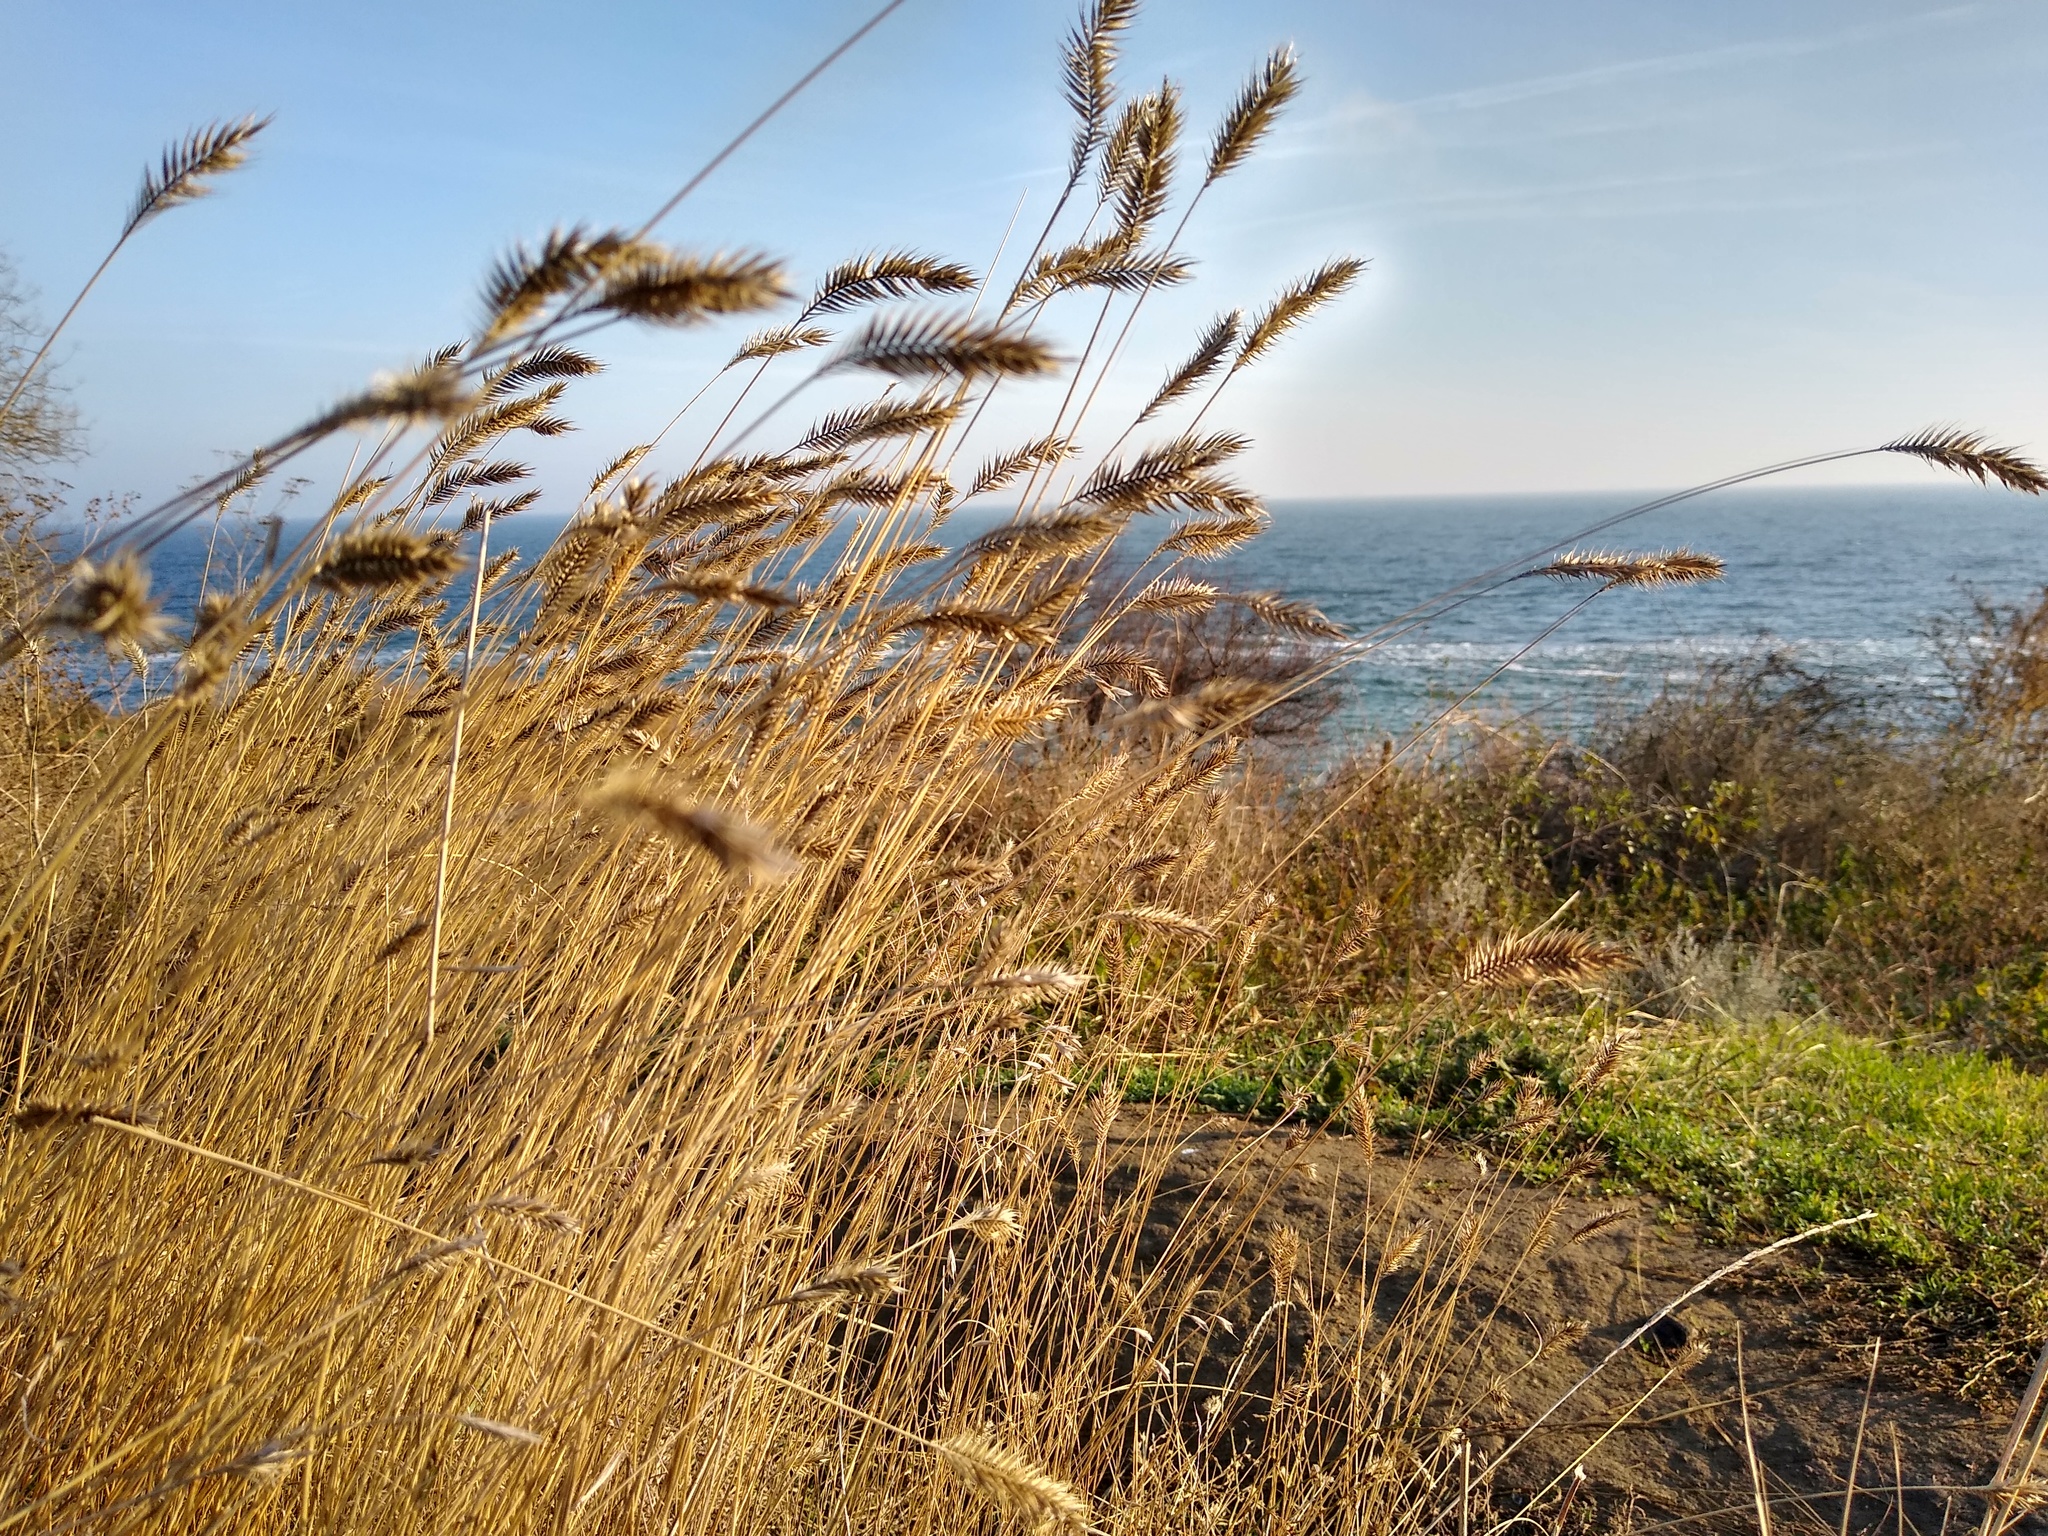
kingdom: Plantae
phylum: Tracheophyta
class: Liliopsida
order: Poales
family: Poaceae
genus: Agropyron
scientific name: Agropyron cristatum
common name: Crested wheatgrass
